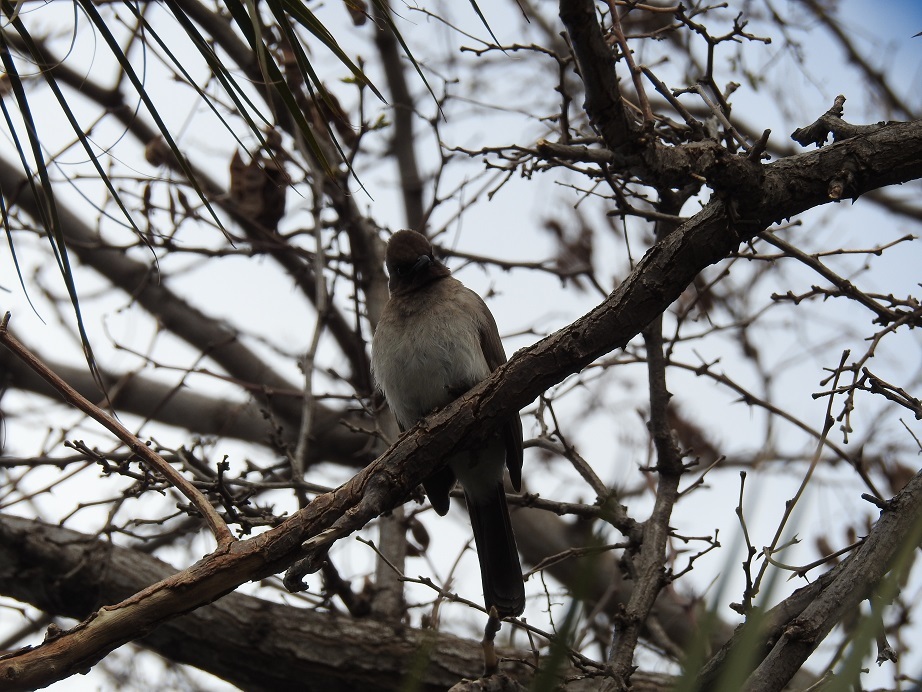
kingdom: Animalia
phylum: Chordata
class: Aves
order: Passeriformes
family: Pycnonotidae
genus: Pycnonotus
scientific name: Pycnonotus barbatus
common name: Common bulbul
